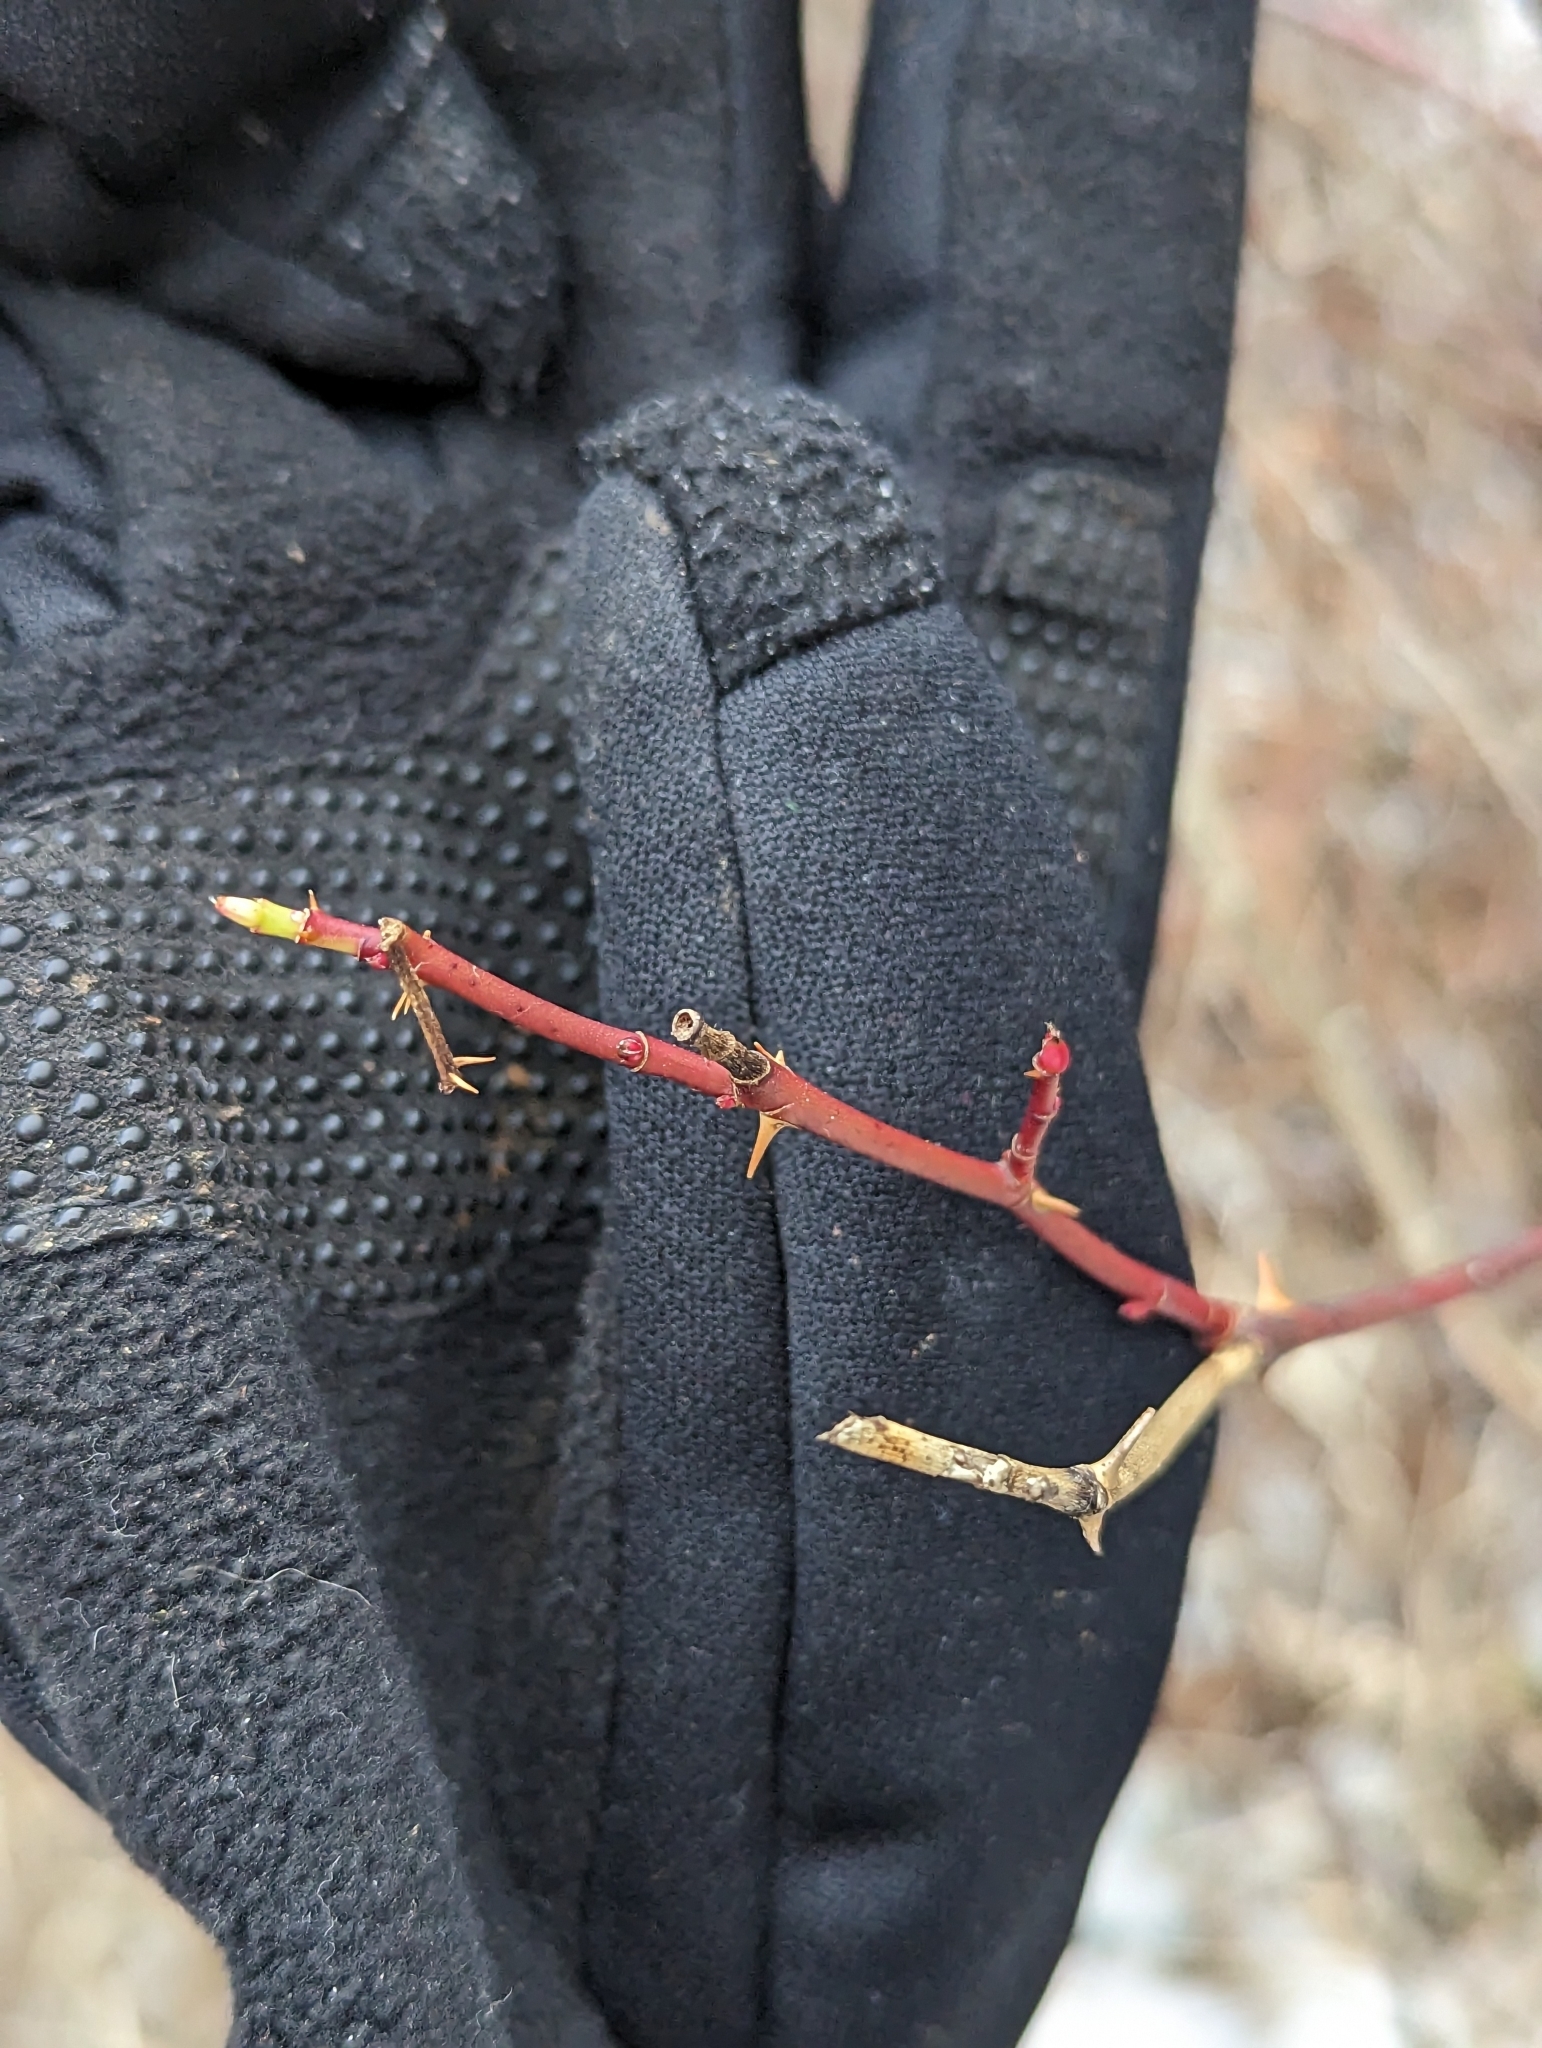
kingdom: Plantae
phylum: Tracheophyta
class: Magnoliopsida
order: Rosales
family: Rosaceae
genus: Rosa
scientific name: Rosa palustris
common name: Swamp rose
